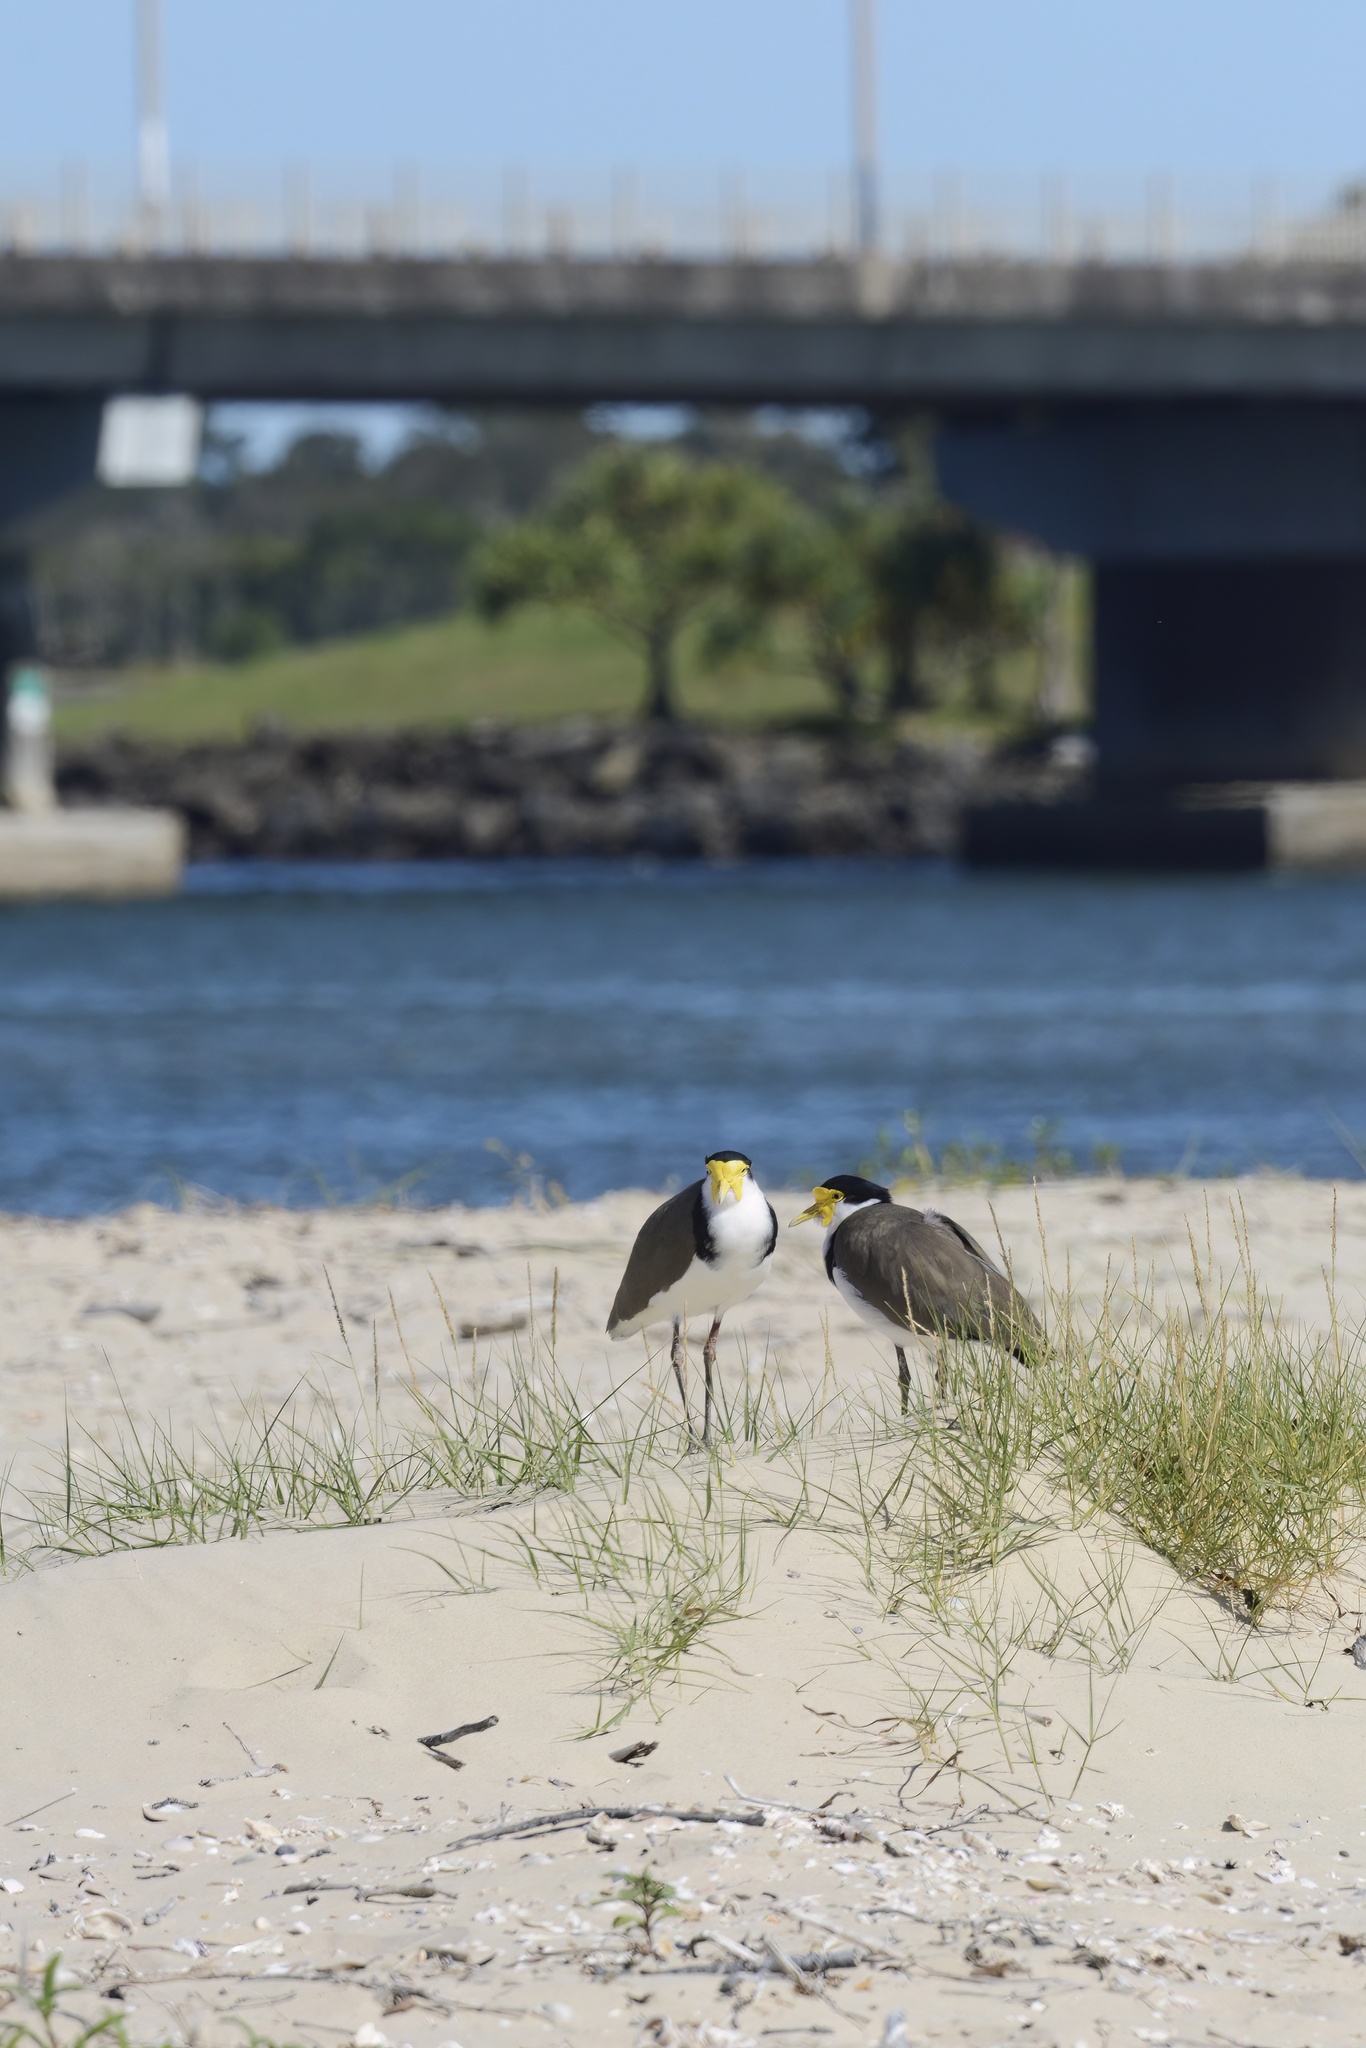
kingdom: Animalia
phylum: Chordata
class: Aves
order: Charadriiformes
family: Charadriidae
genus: Vanellus
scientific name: Vanellus miles
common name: Masked lapwing
